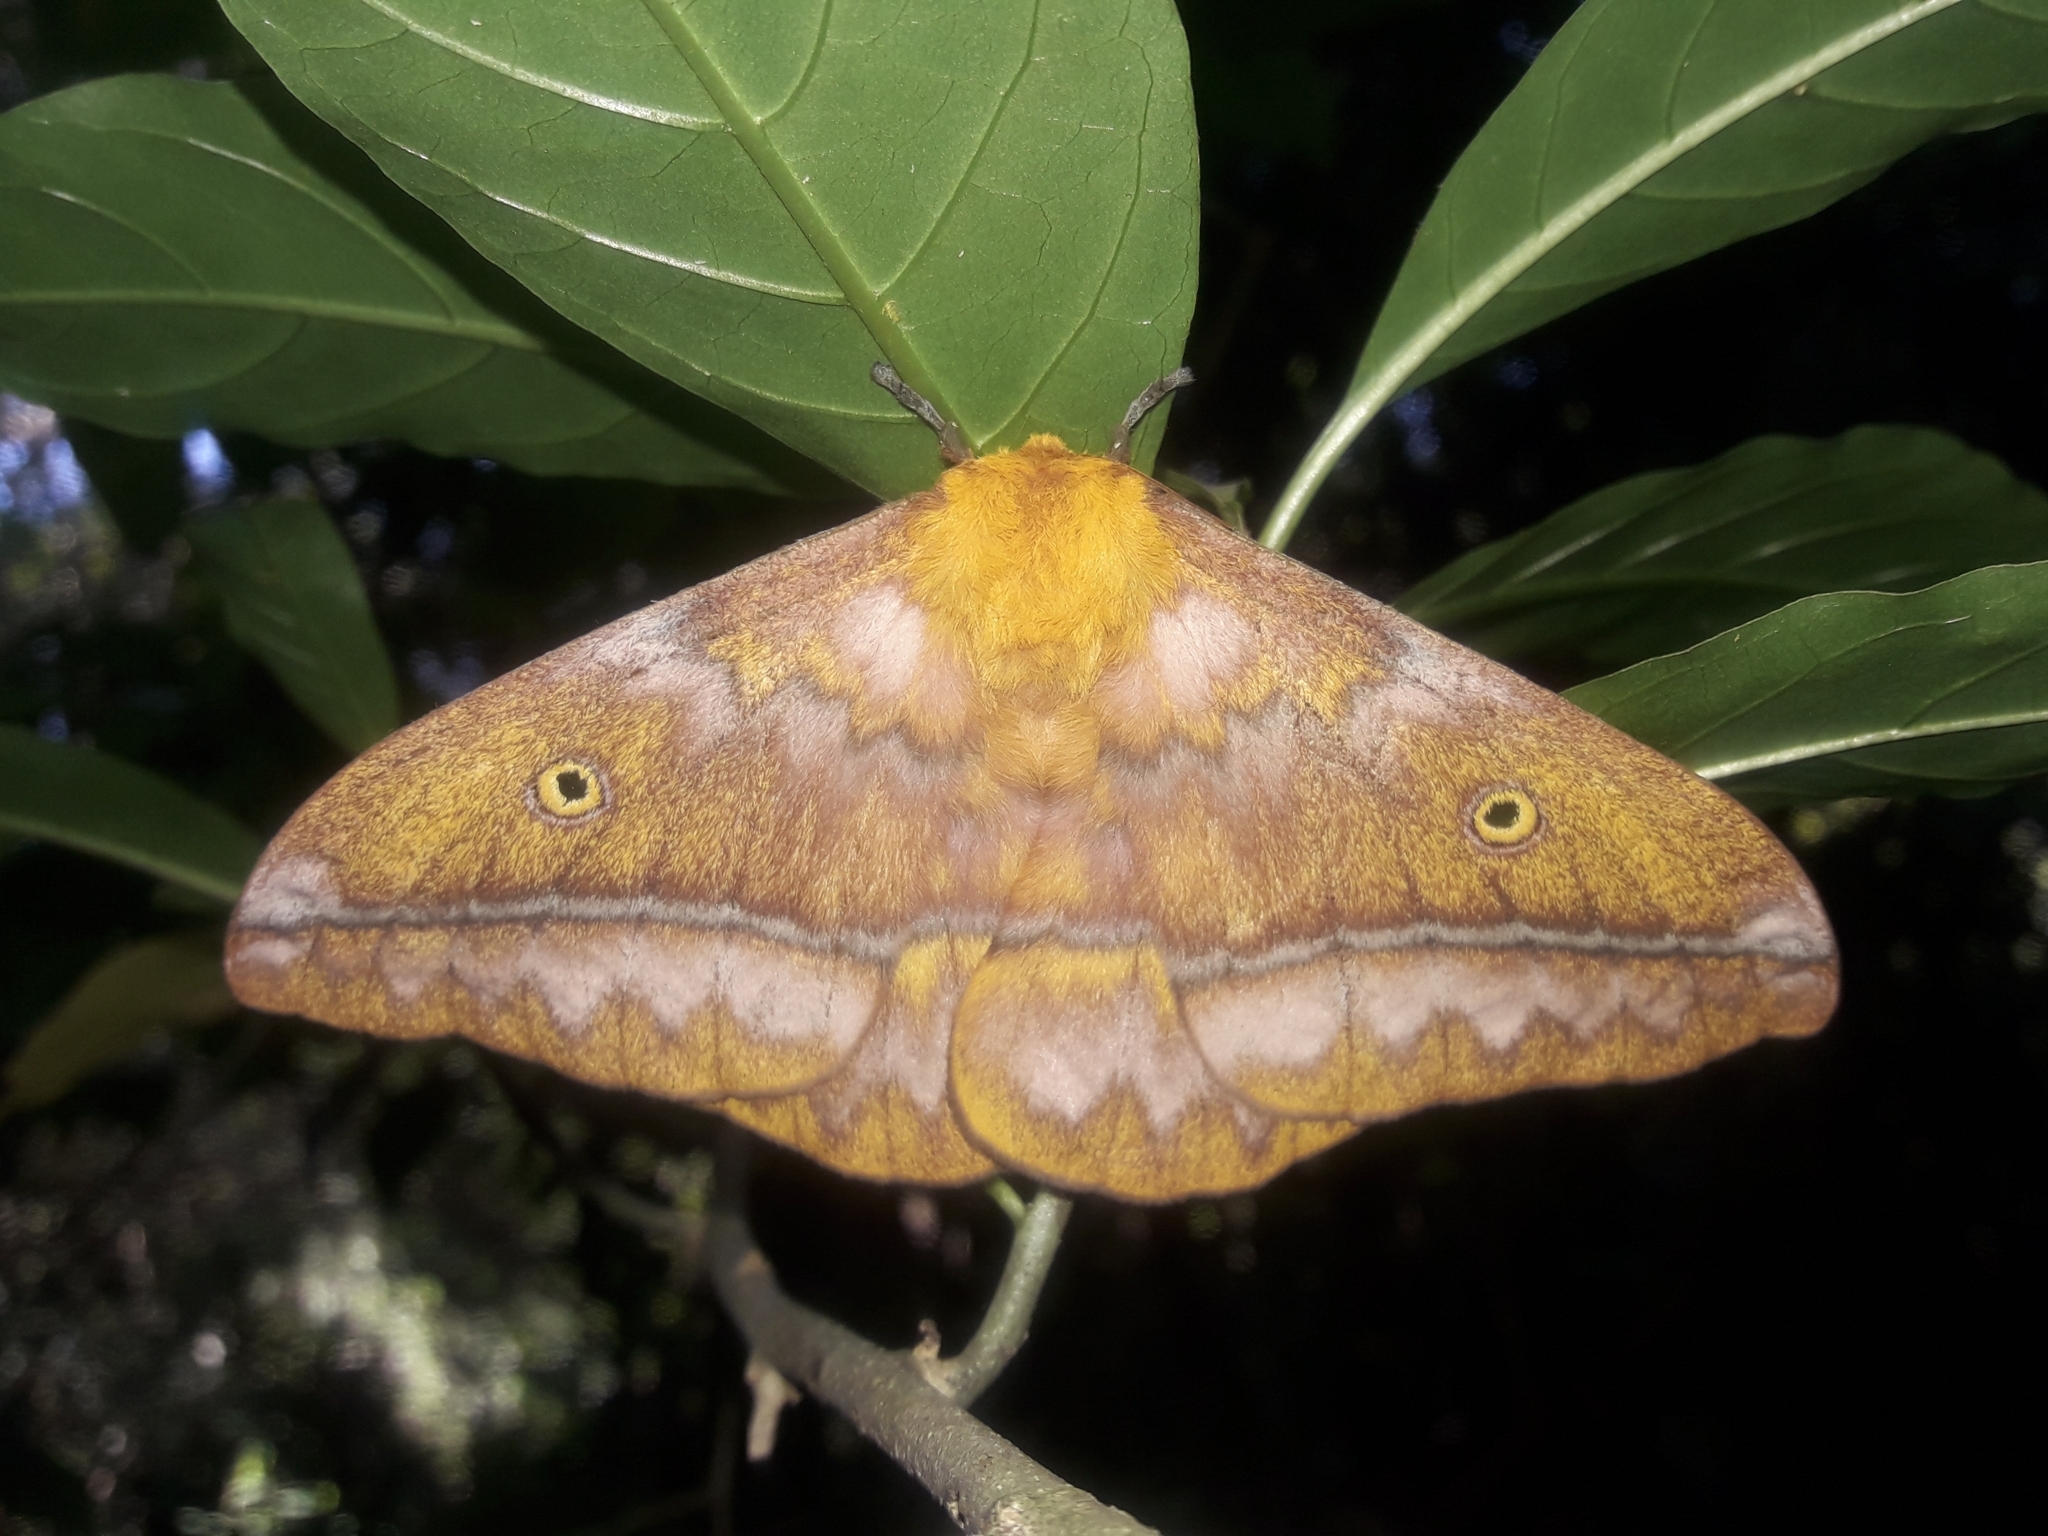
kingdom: Animalia
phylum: Arthropoda
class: Insecta
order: Lepidoptera
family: Saturniidae
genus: Nudaurelia
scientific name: Nudaurelia wahlbergi
